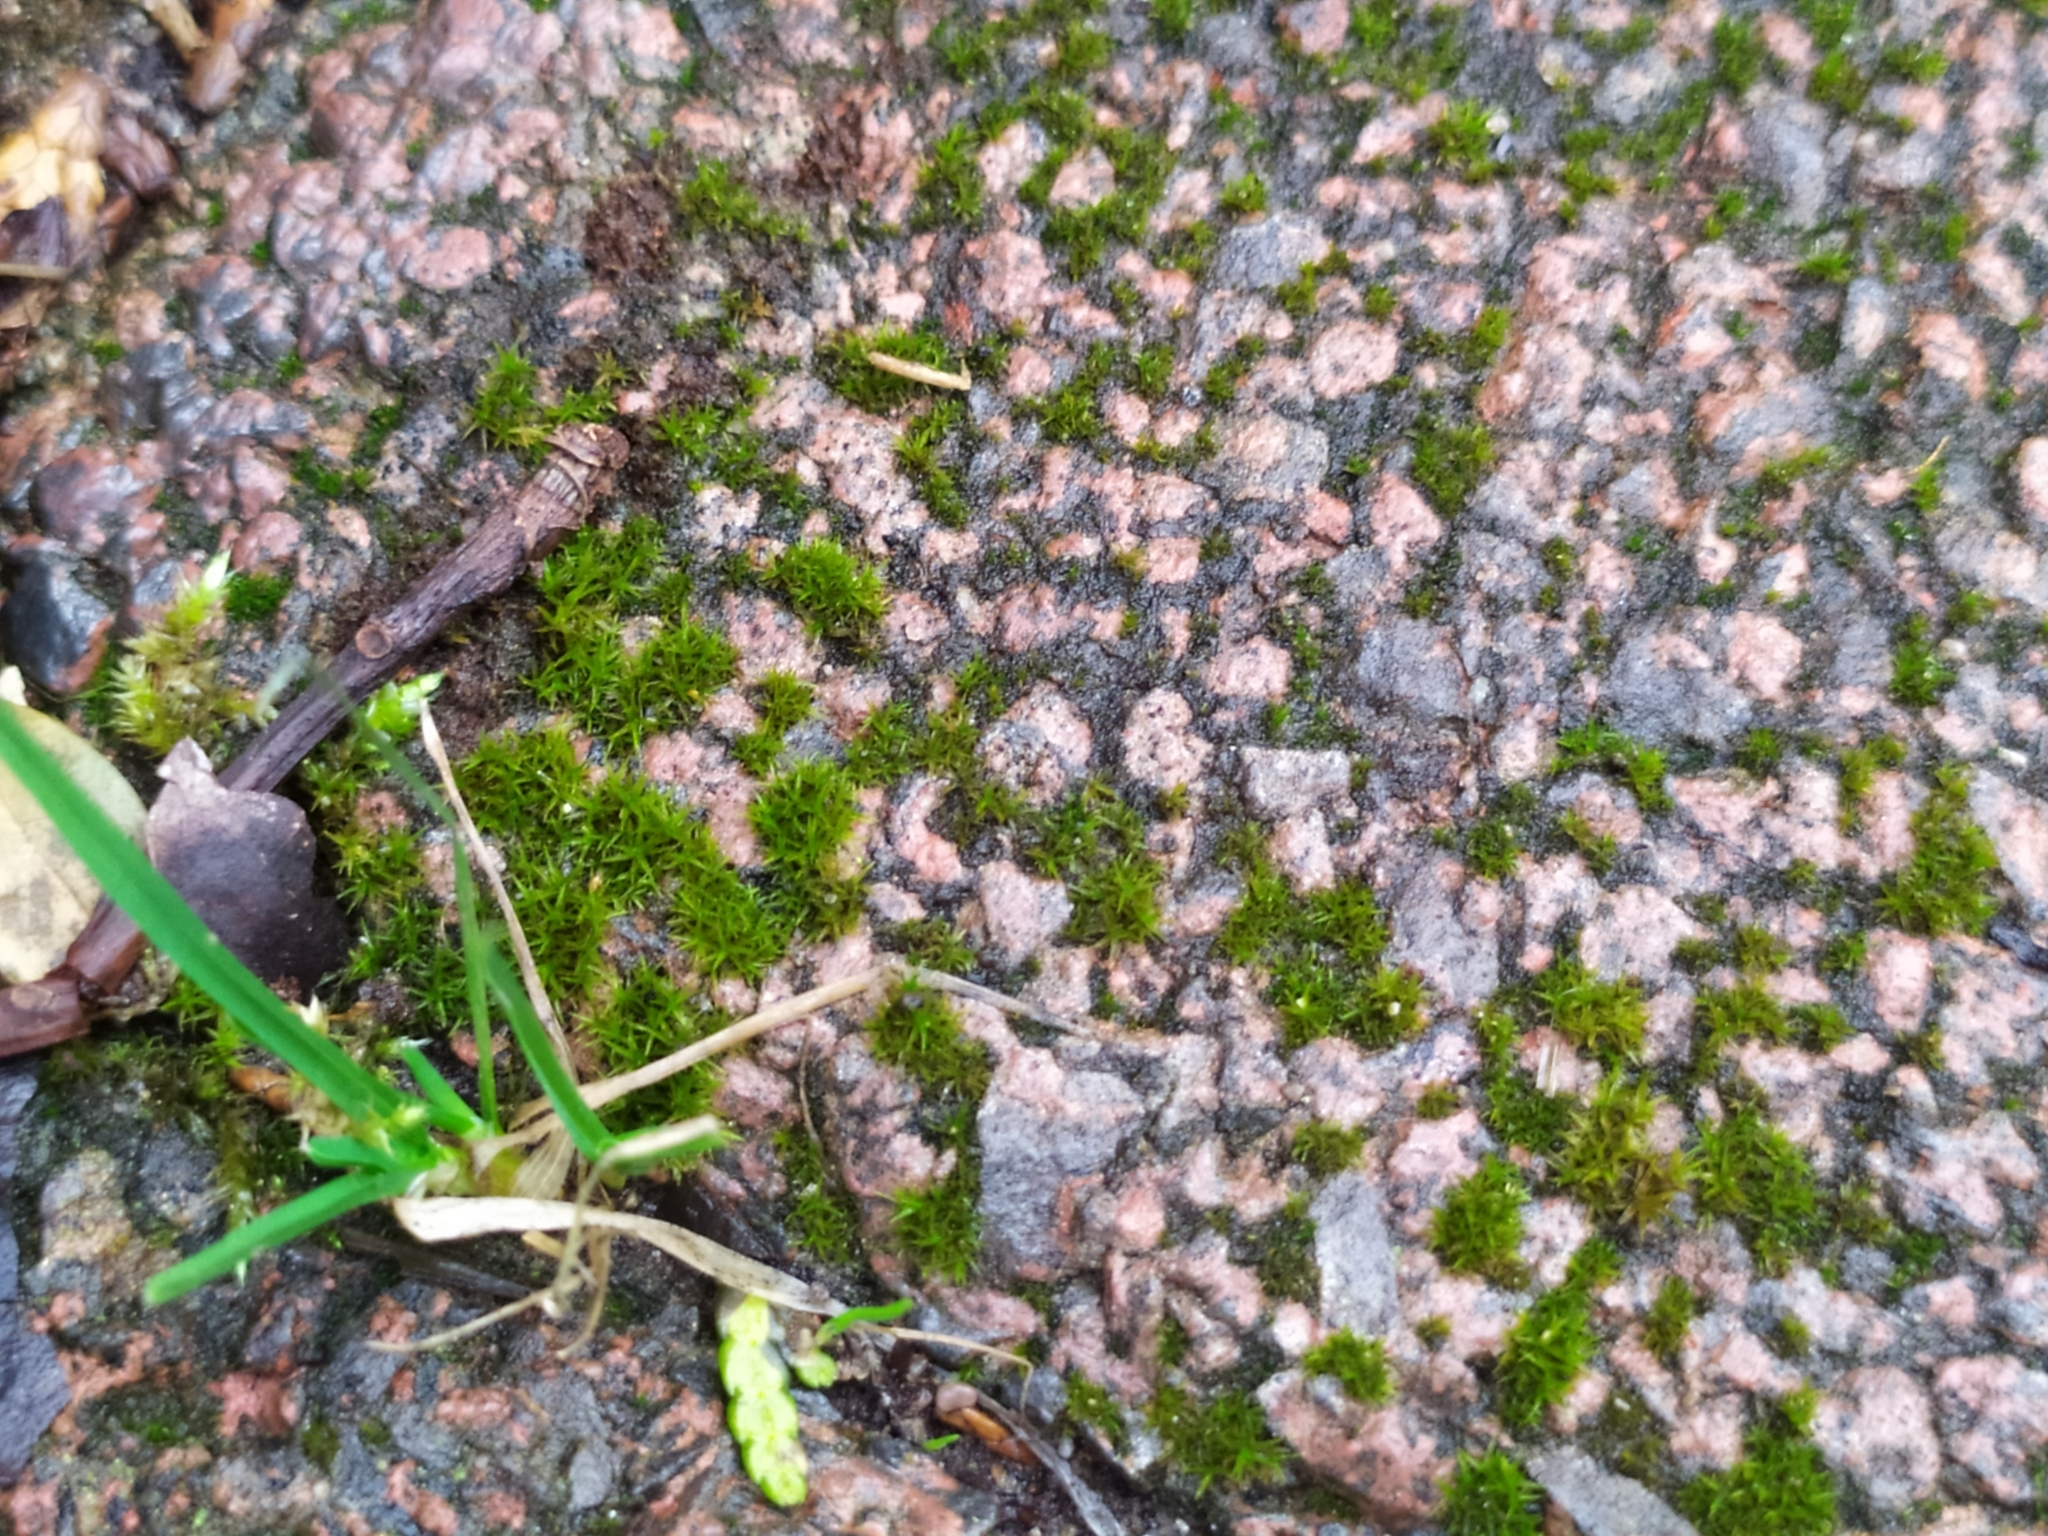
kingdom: Plantae
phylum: Bryophyta
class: Bryopsida
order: Pottiales
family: Pottiaceae
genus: Didymodon
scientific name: Didymodon rigidulus
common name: Rigid beard-moss
